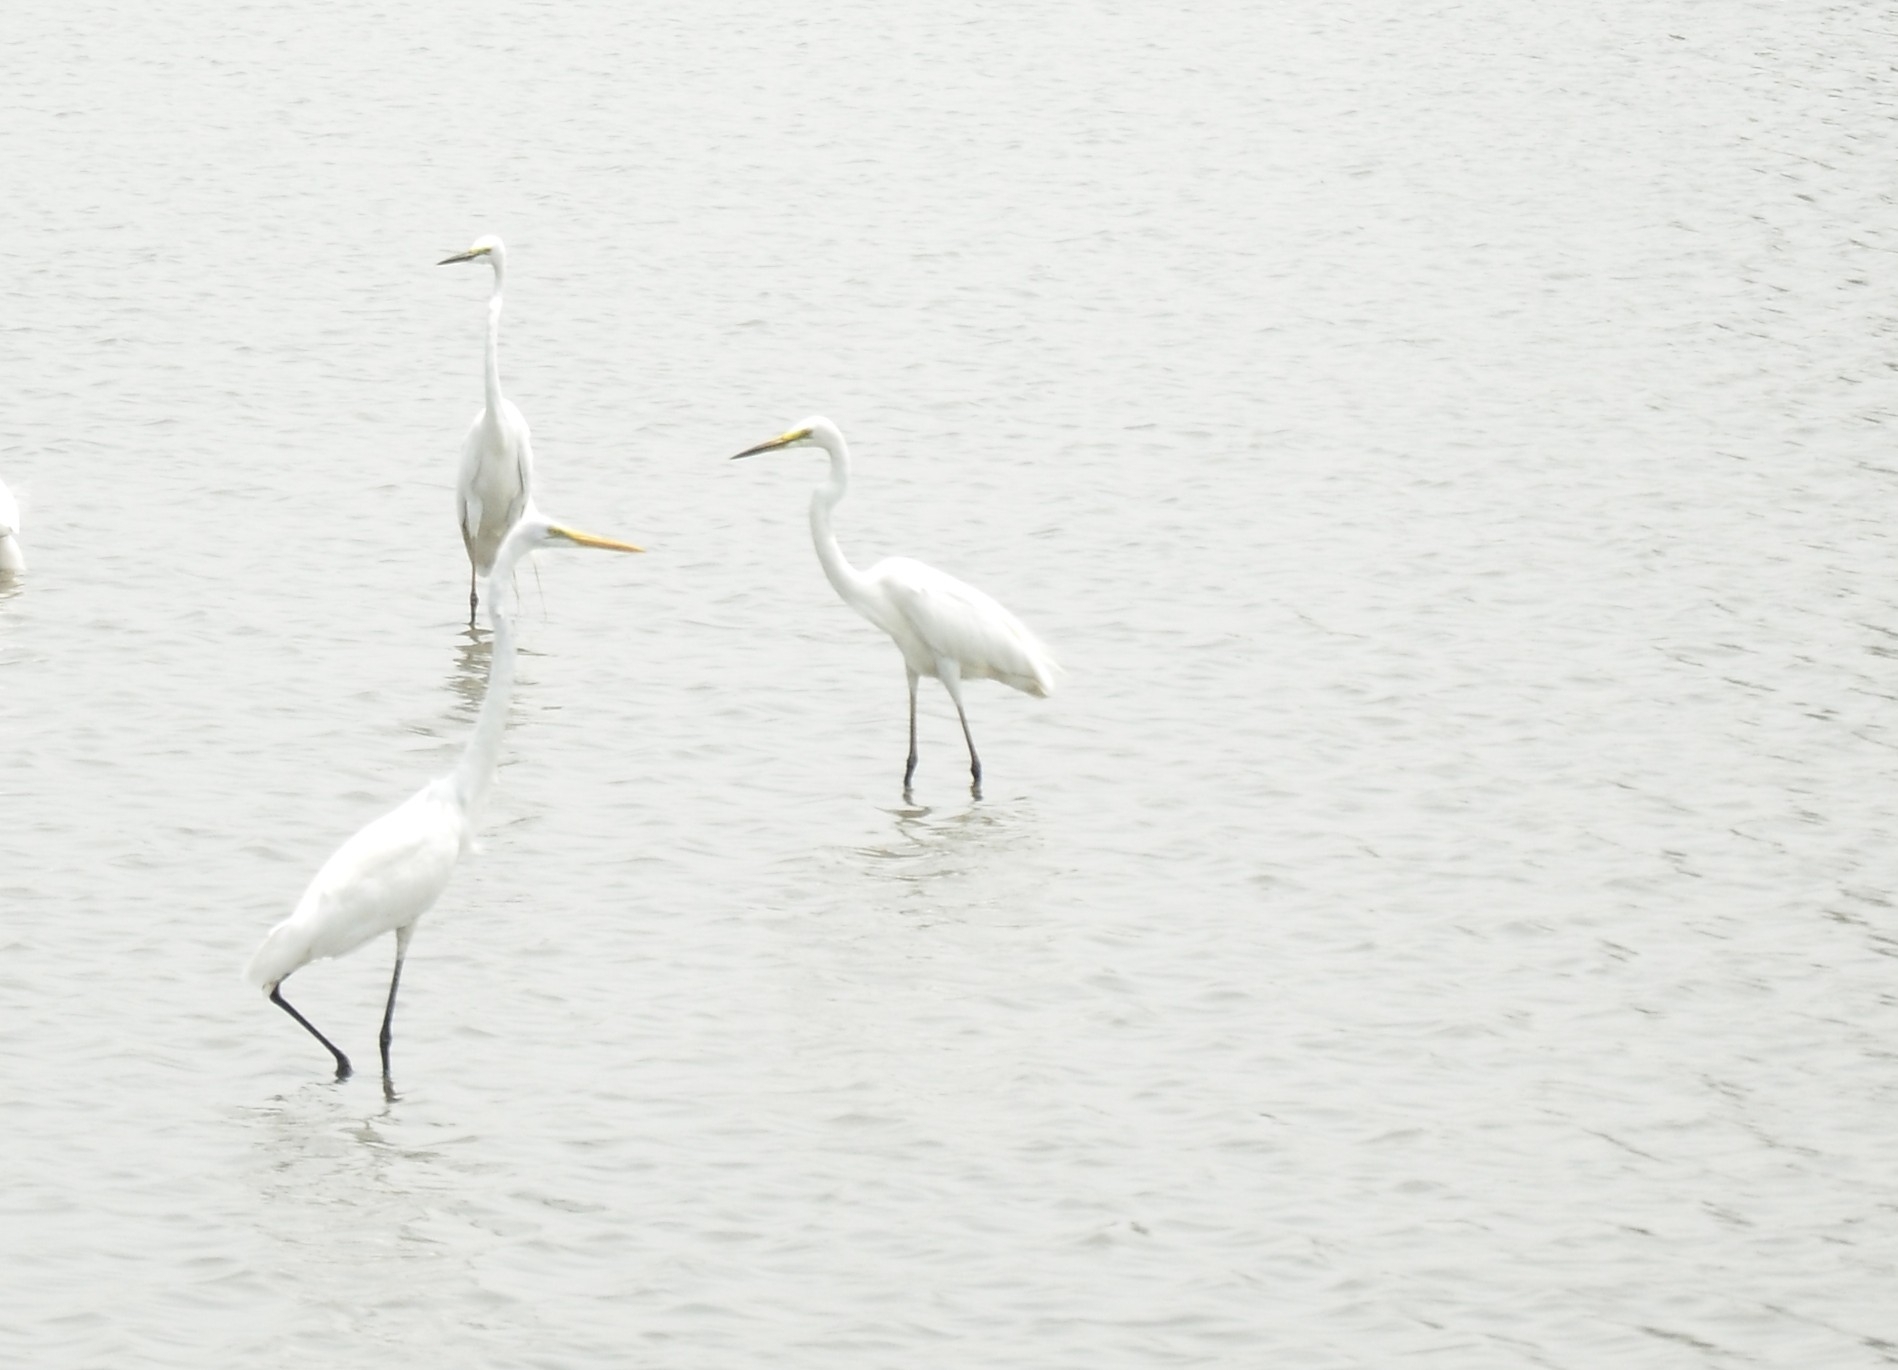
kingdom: Animalia
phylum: Chordata
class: Aves
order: Pelecaniformes
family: Ardeidae
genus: Ardea
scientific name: Ardea alba
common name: Great egret
